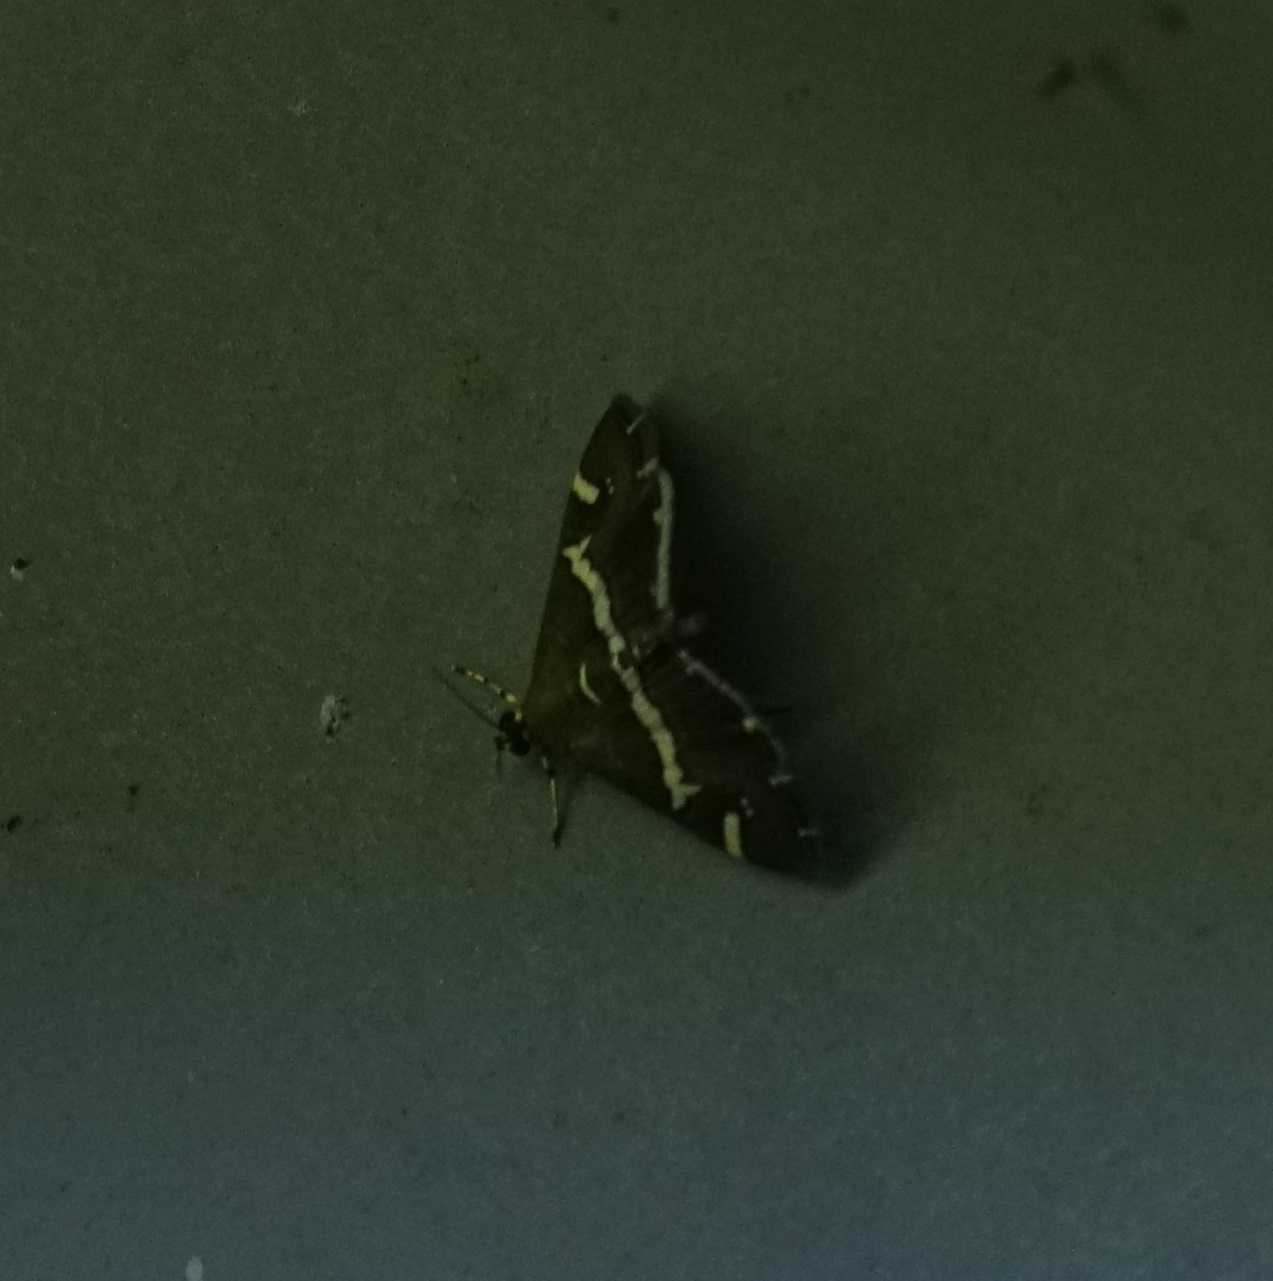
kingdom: Animalia
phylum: Arthropoda
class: Insecta
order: Lepidoptera
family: Crambidae
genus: Spoladea
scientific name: Spoladea recurvalis
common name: Beet webworm moth
